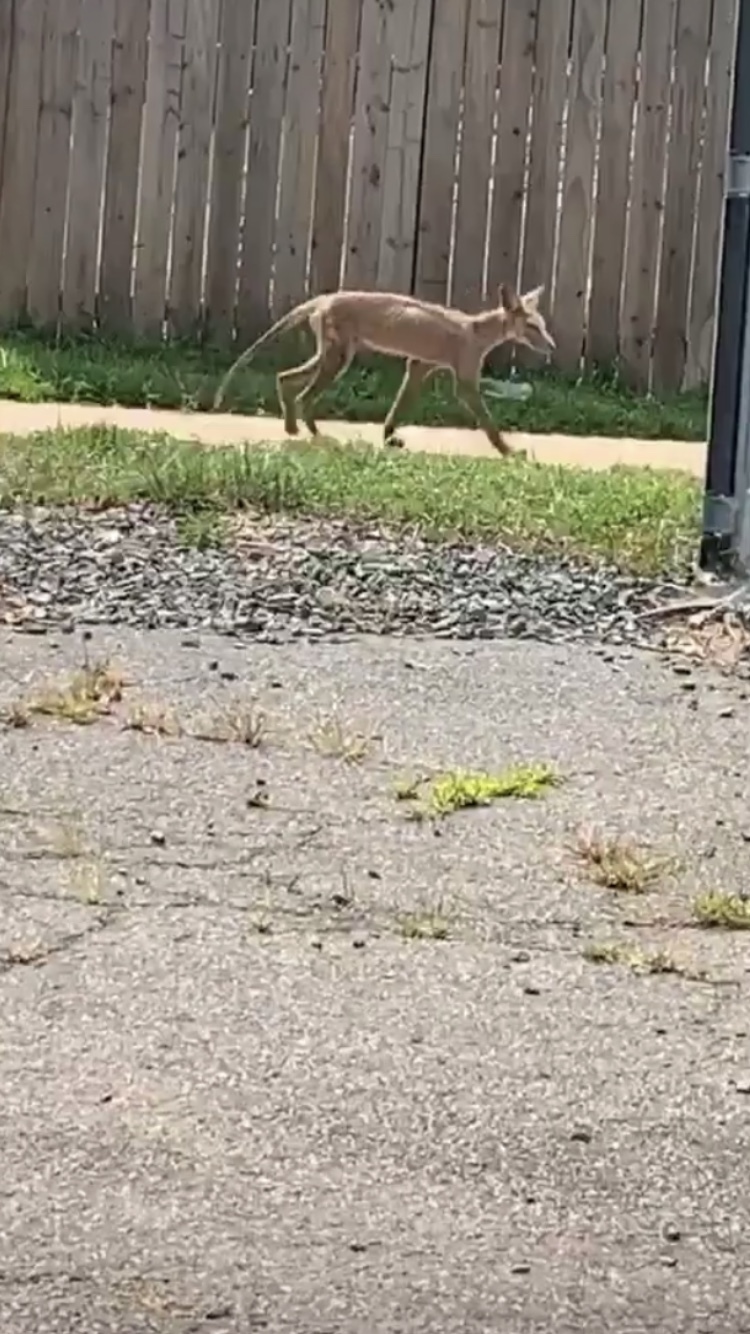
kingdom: Animalia
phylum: Chordata
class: Mammalia
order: Carnivora
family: Canidae
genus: Vulpes
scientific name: Vulpes vulpes
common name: Red fox
